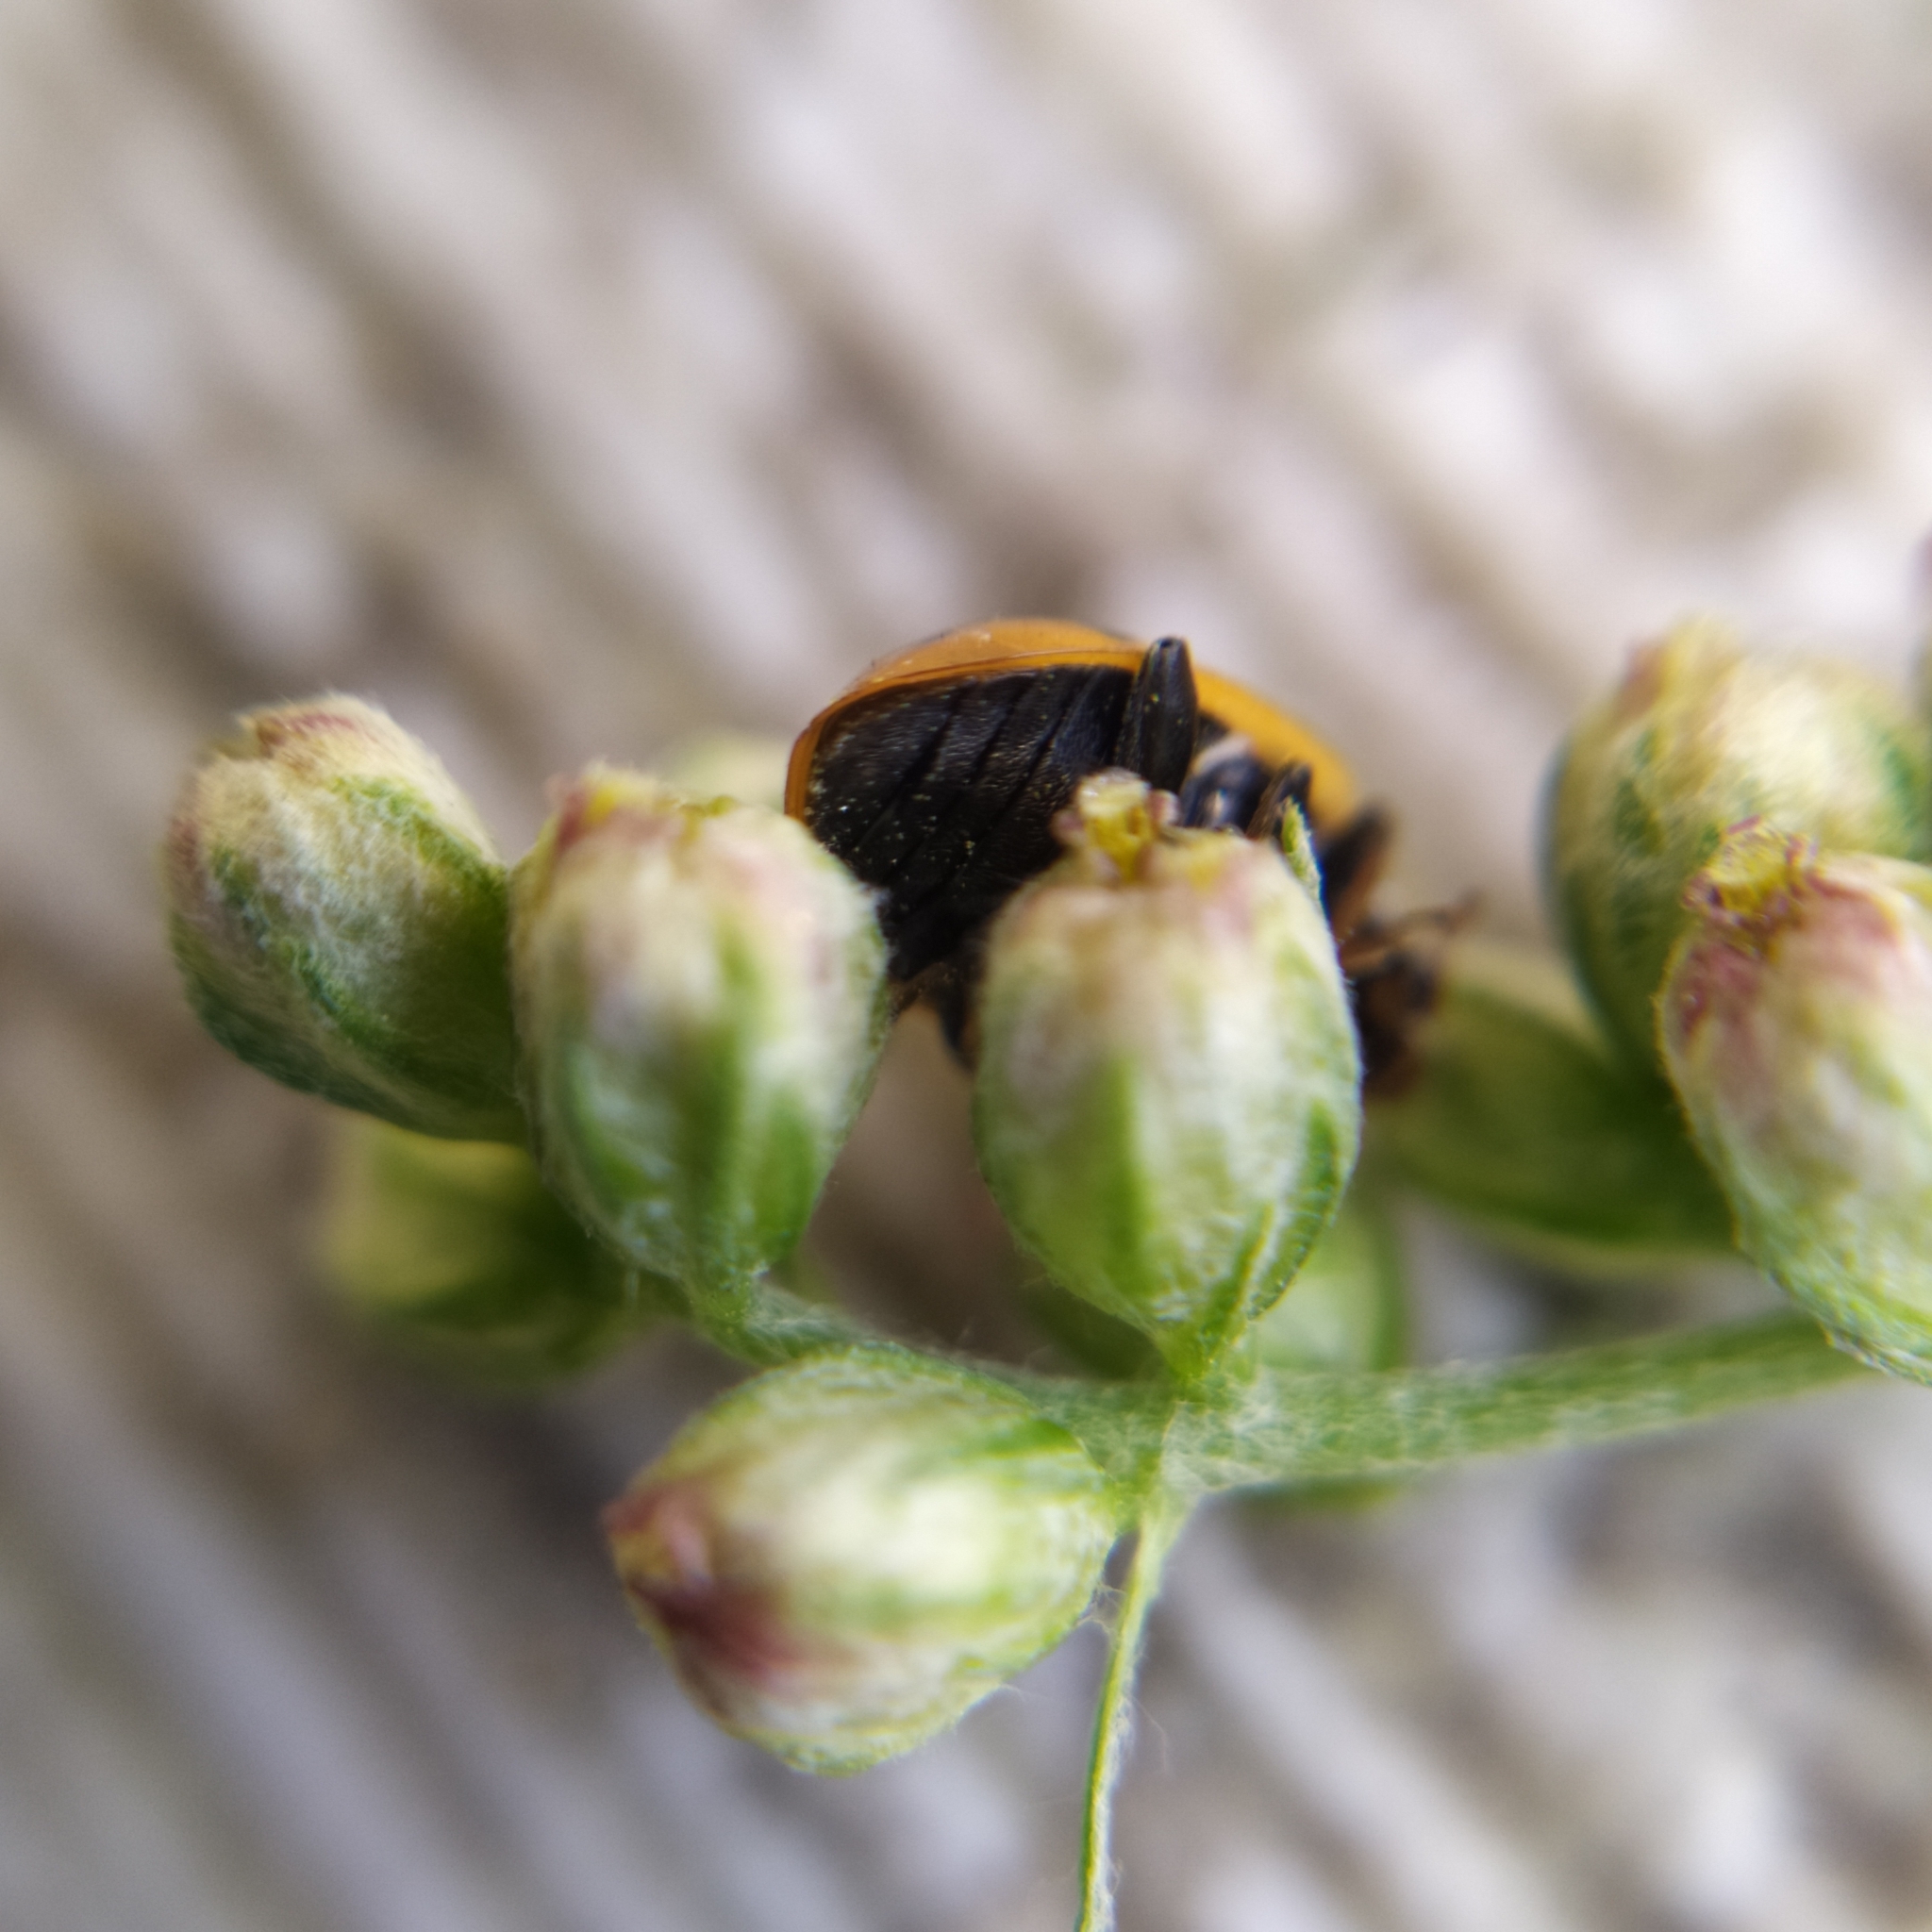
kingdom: Animalia
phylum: Arthropoda
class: Insecta
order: Coleoptera
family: Coccinellidae
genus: Hippodamia
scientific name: Hippodamia variegata
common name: Ladybird beetle
